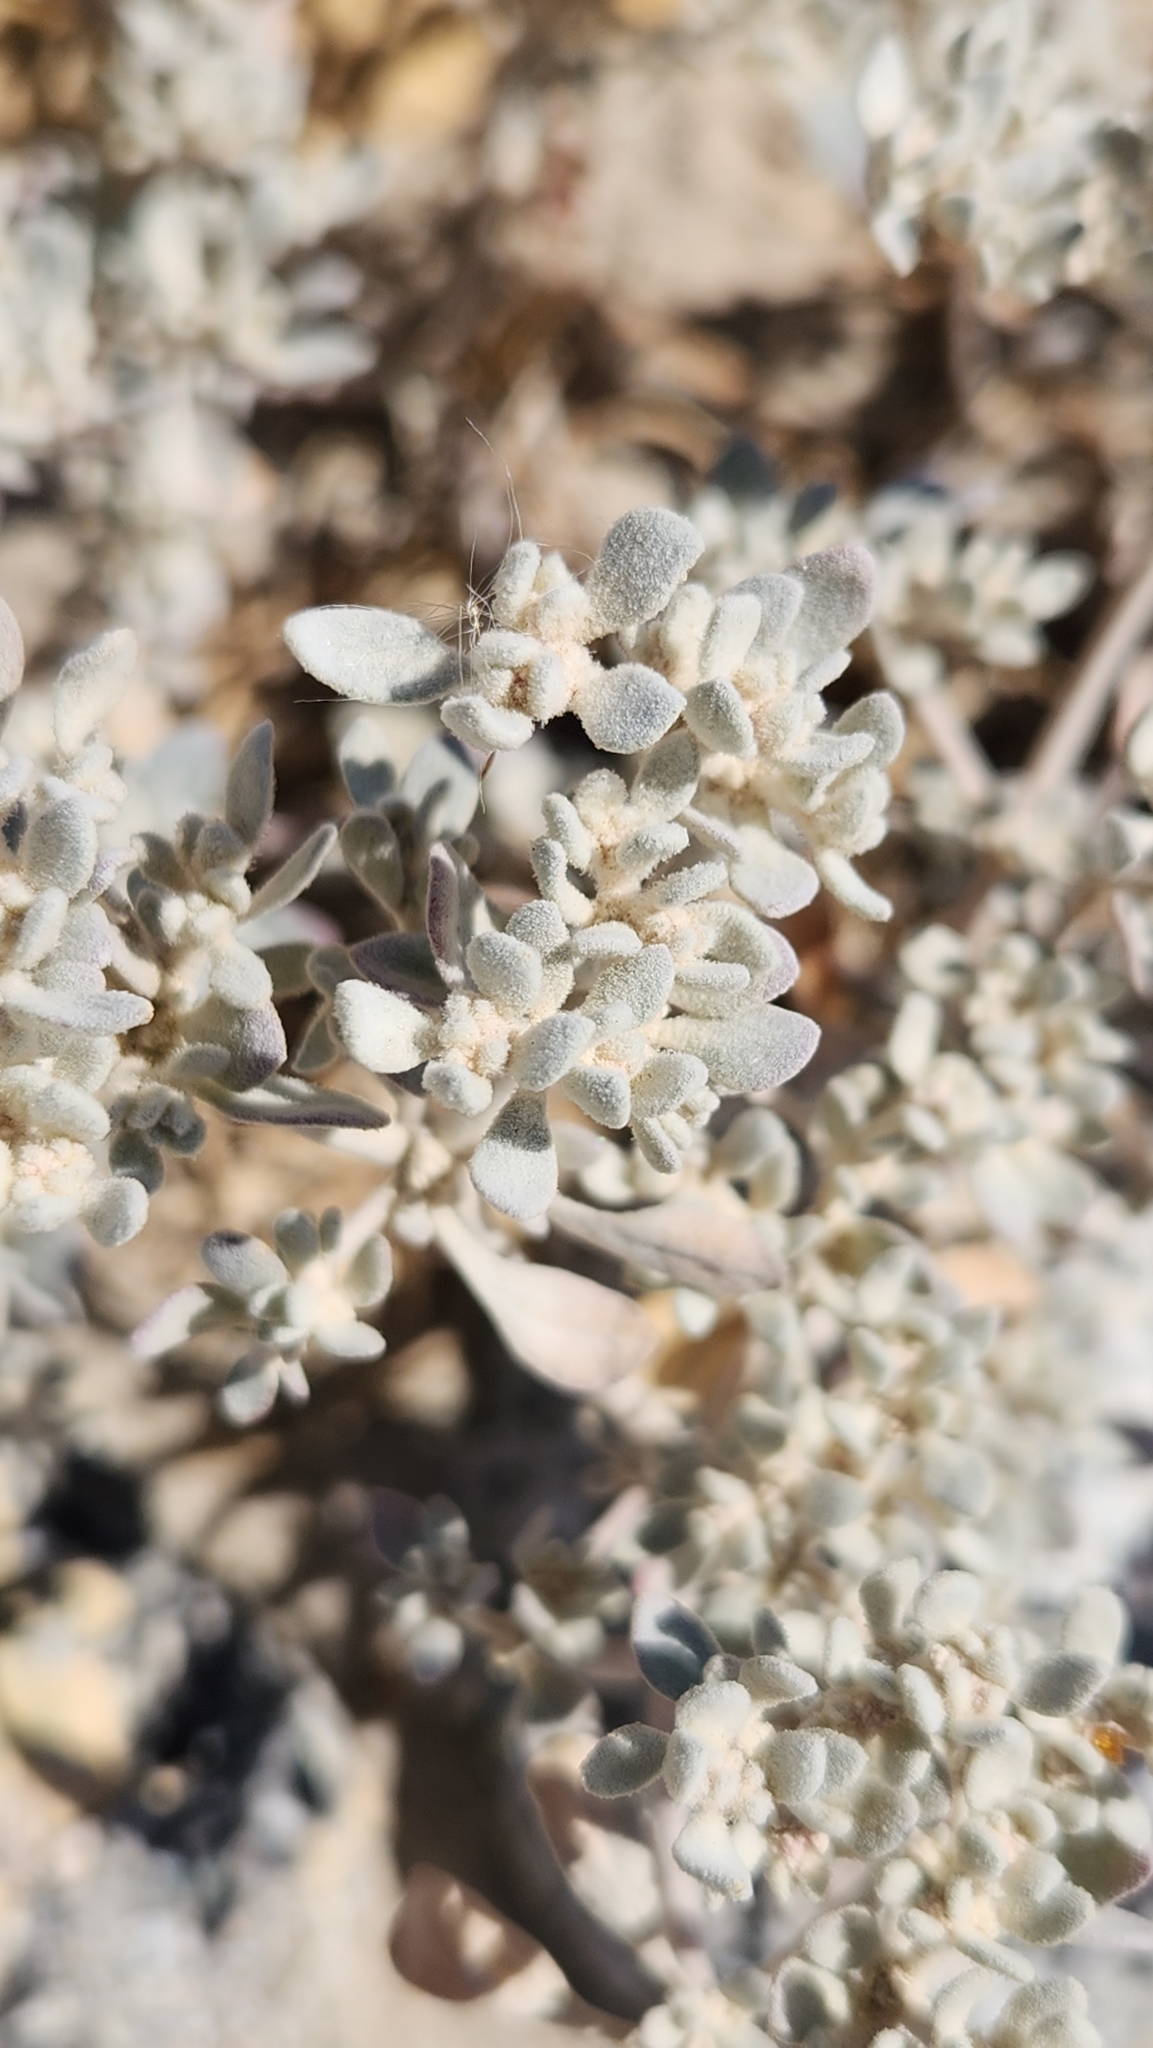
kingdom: Plantae
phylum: Tracheophyta
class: Magnoliopsida
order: Caryophyllales
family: Amaranthaceae
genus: Tidestromia
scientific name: Tidestromia suffruticosa
